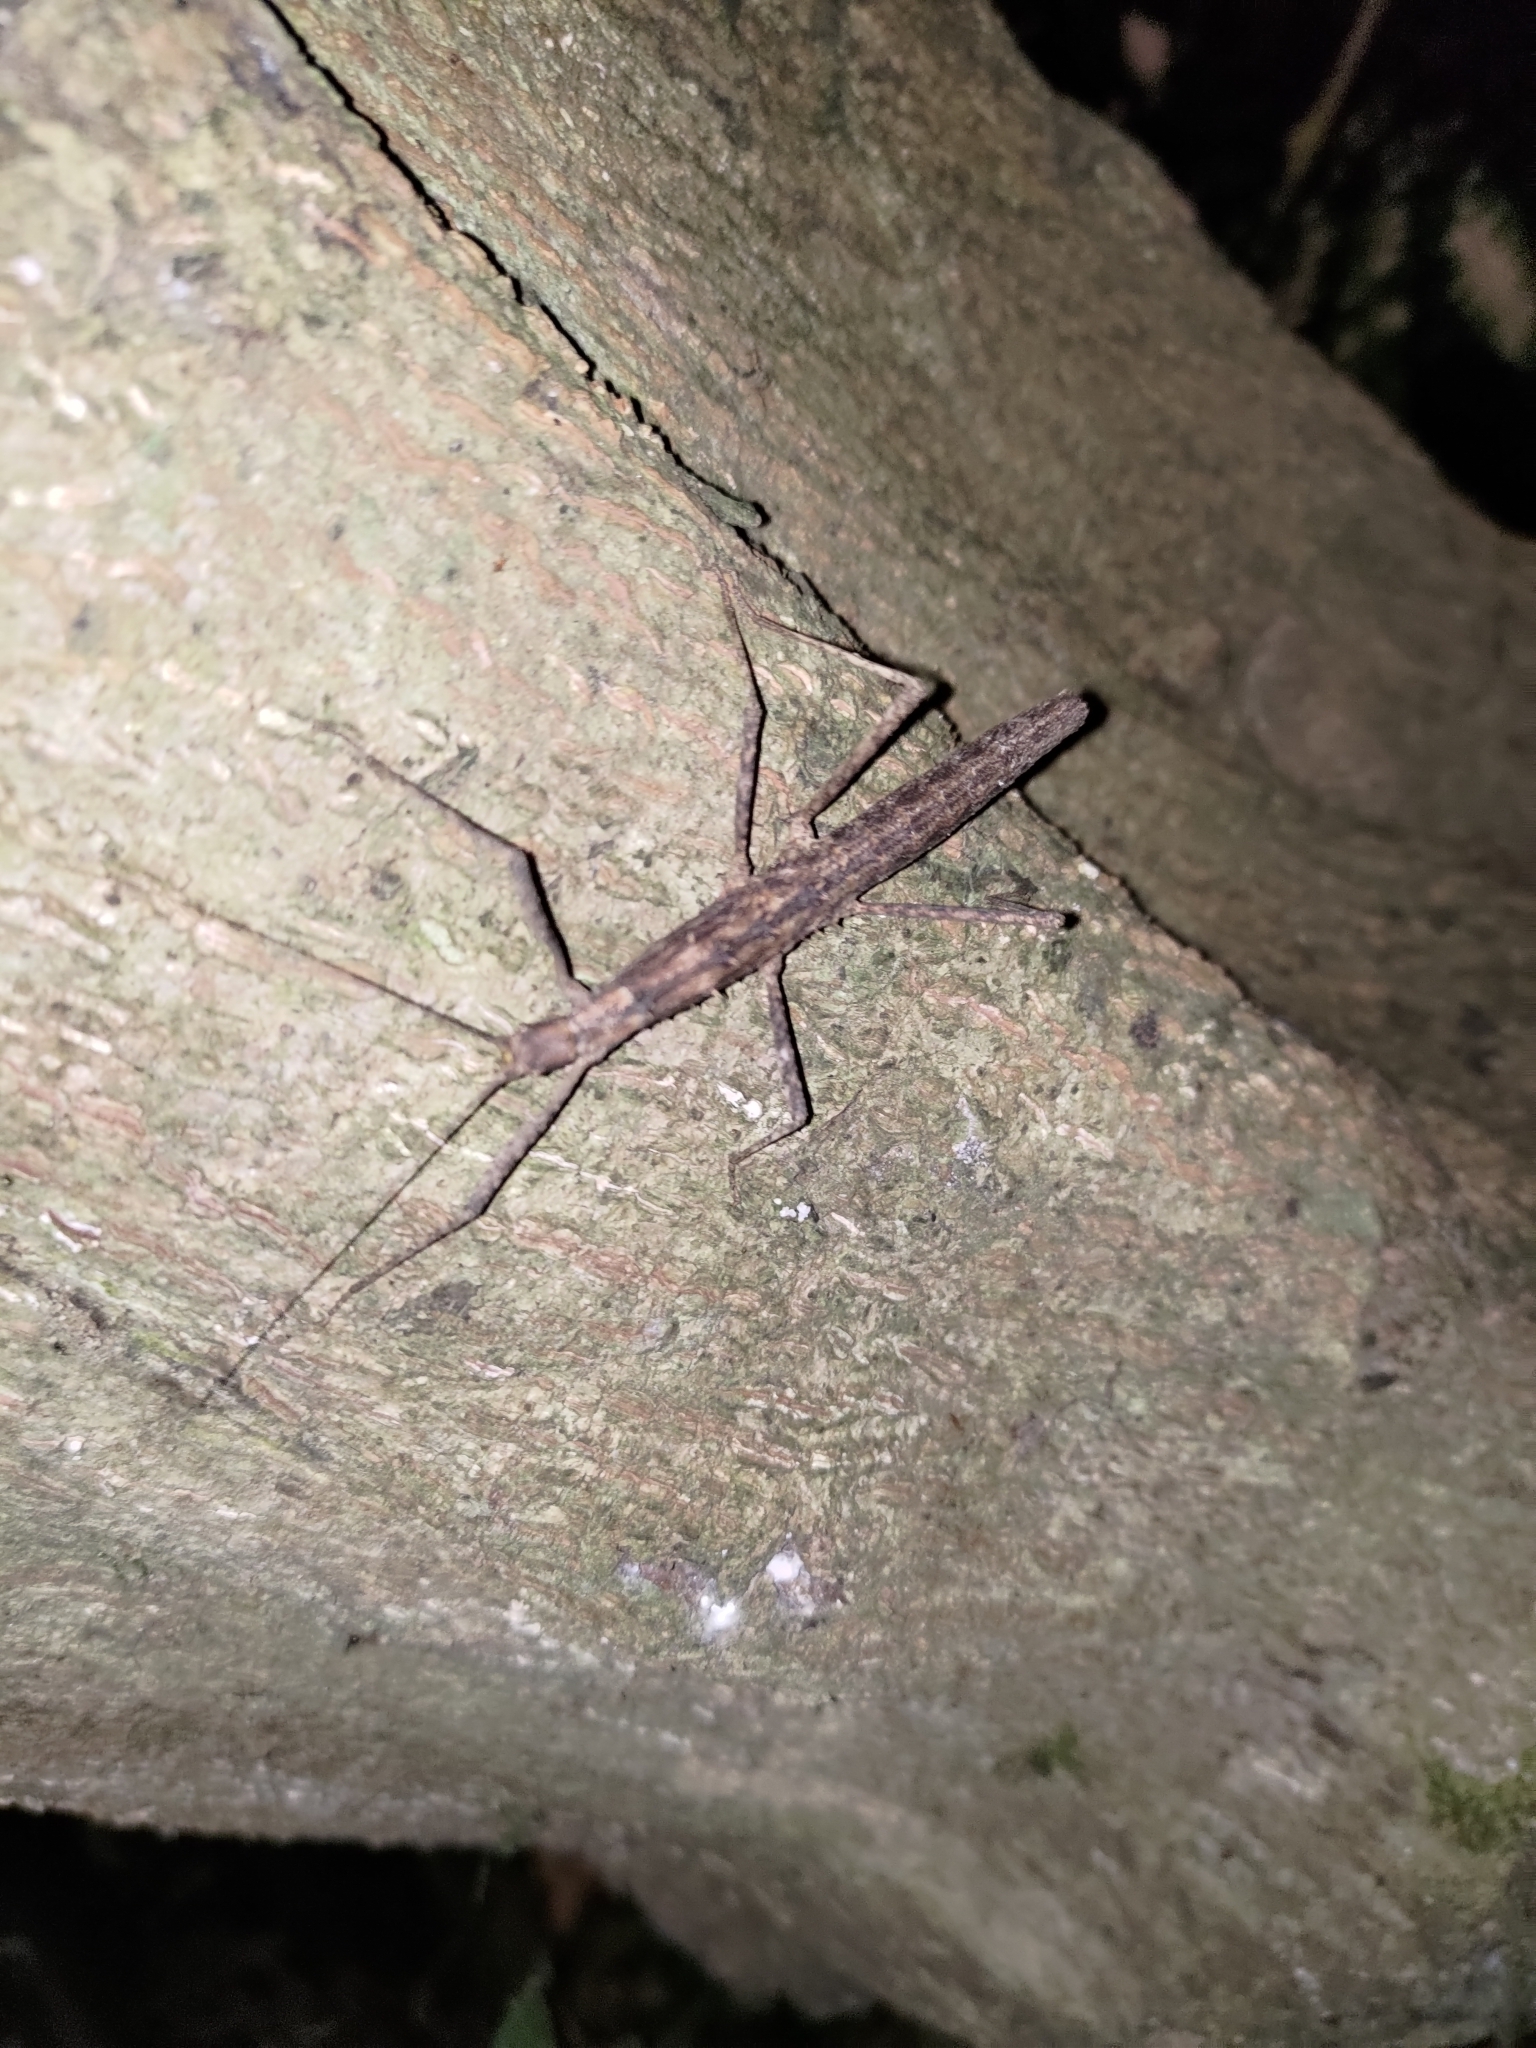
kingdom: Animalia
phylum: Arthropoda
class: Insecta
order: Phasmida
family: Lonchodidae
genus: Neohirasea
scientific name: Neohirasea japonica
